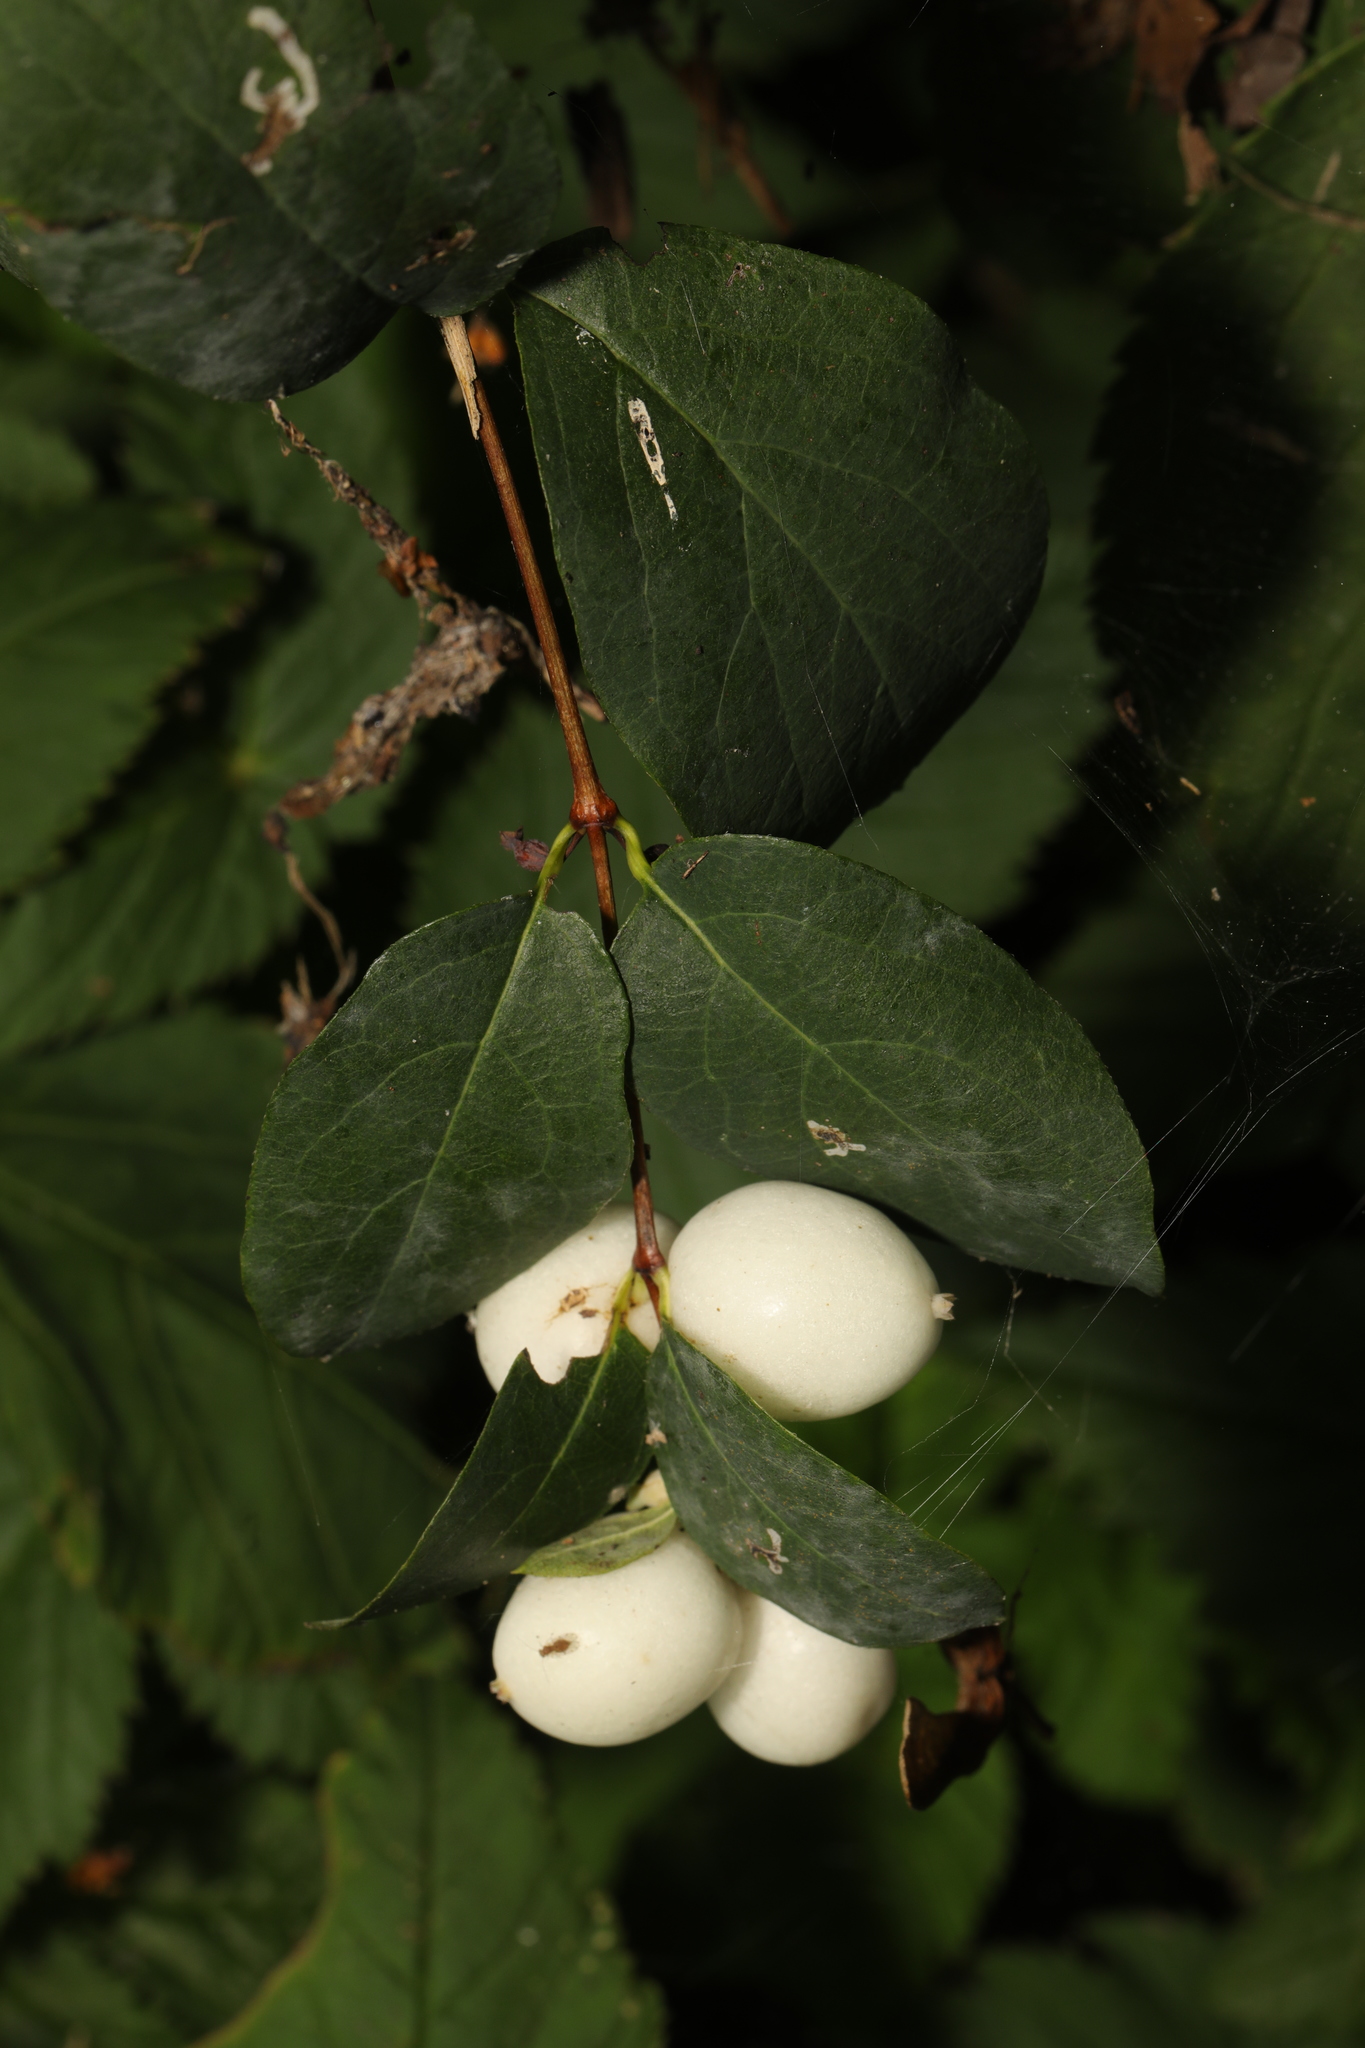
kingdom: Plantae
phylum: Tracheophyta
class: Magnoliopsida
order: Dipsacales
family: Caprifoliaceae
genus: Symphoricarpos
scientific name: Symphoricarpos albus
